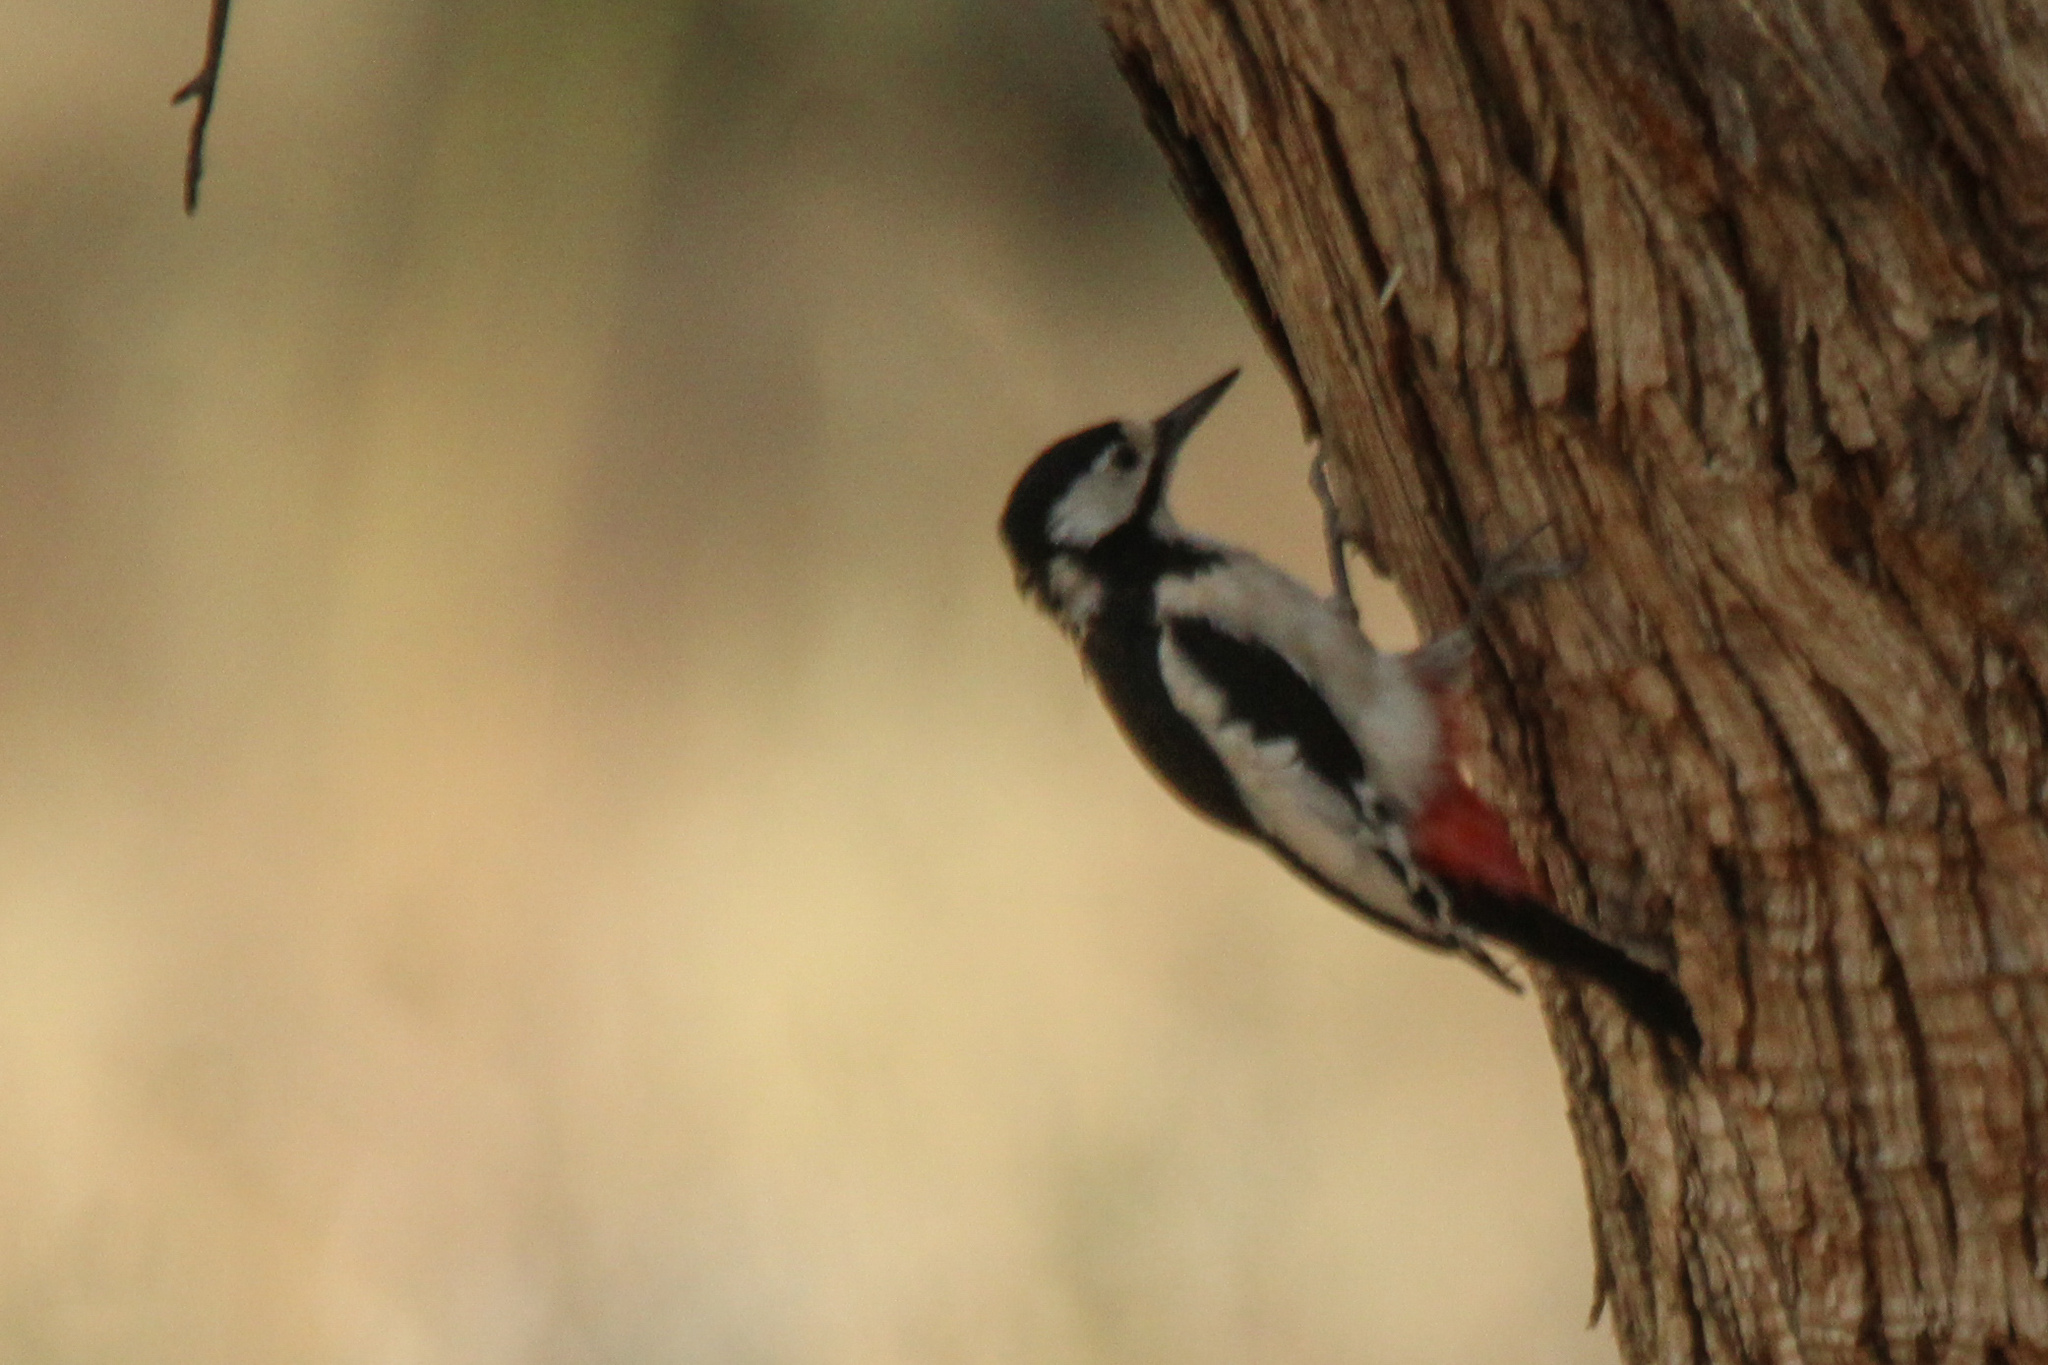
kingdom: Animalia
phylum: Chordata
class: Aves
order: Piciformes
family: Picidae
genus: Dendrocopos
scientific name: Dendrocopos leucopterus
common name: White-winged woodpecker
